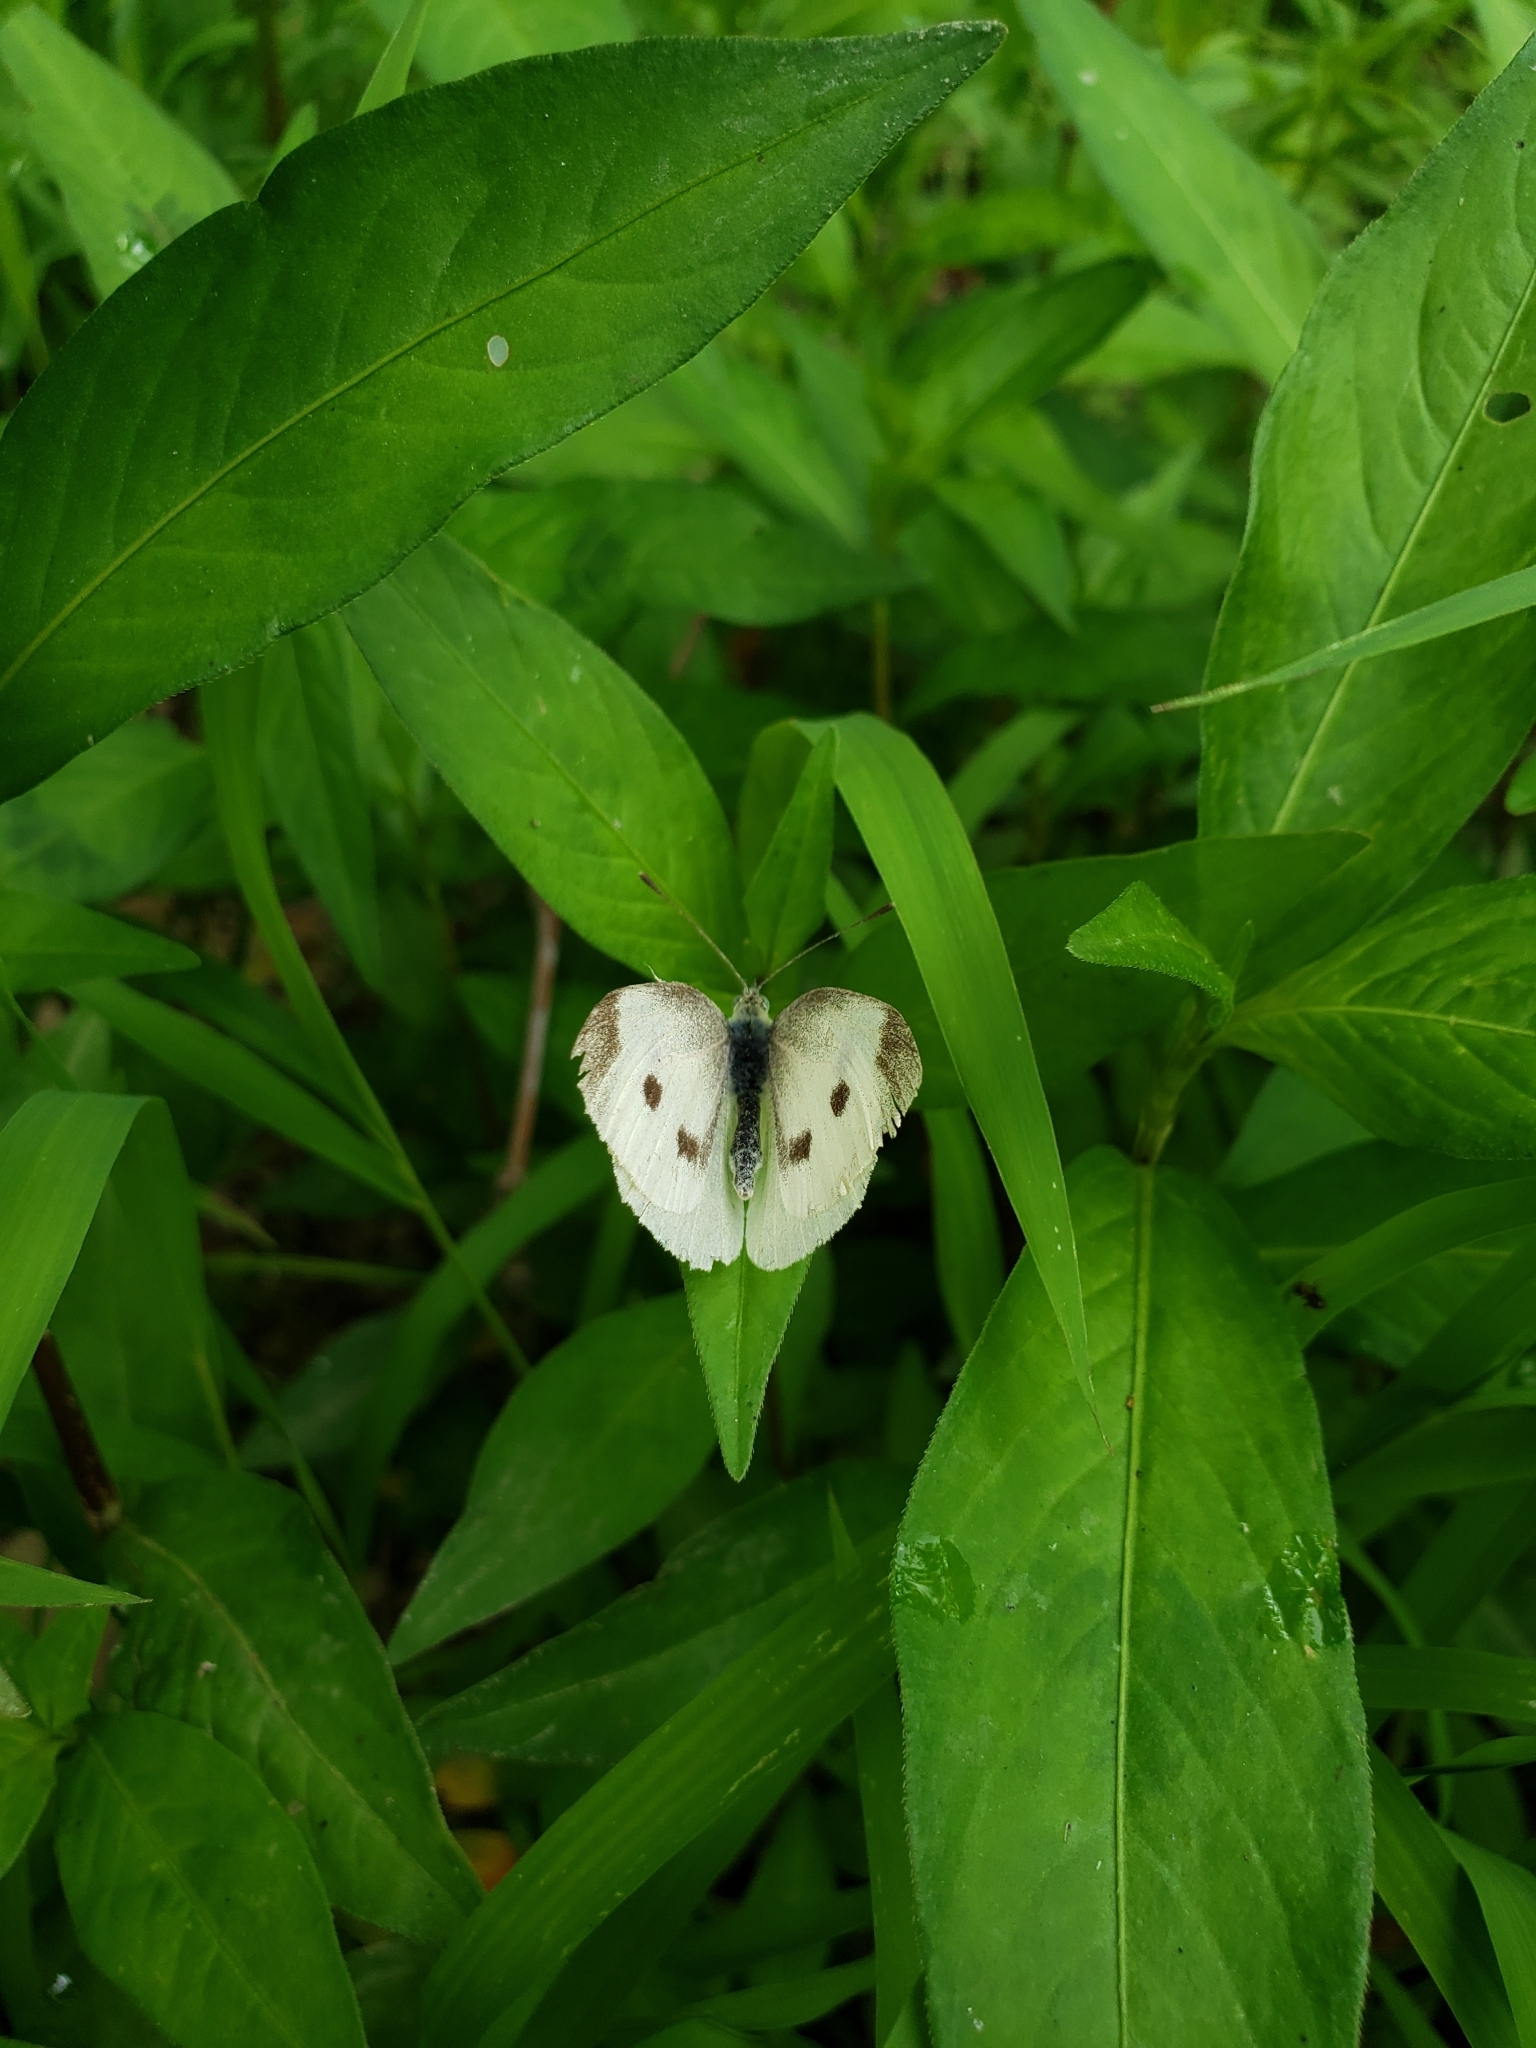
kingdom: Animalia
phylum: Arthropoda
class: Insecta
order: Lepidoptera
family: Pieridae
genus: Pieris
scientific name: Pieris rapae
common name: Small white
